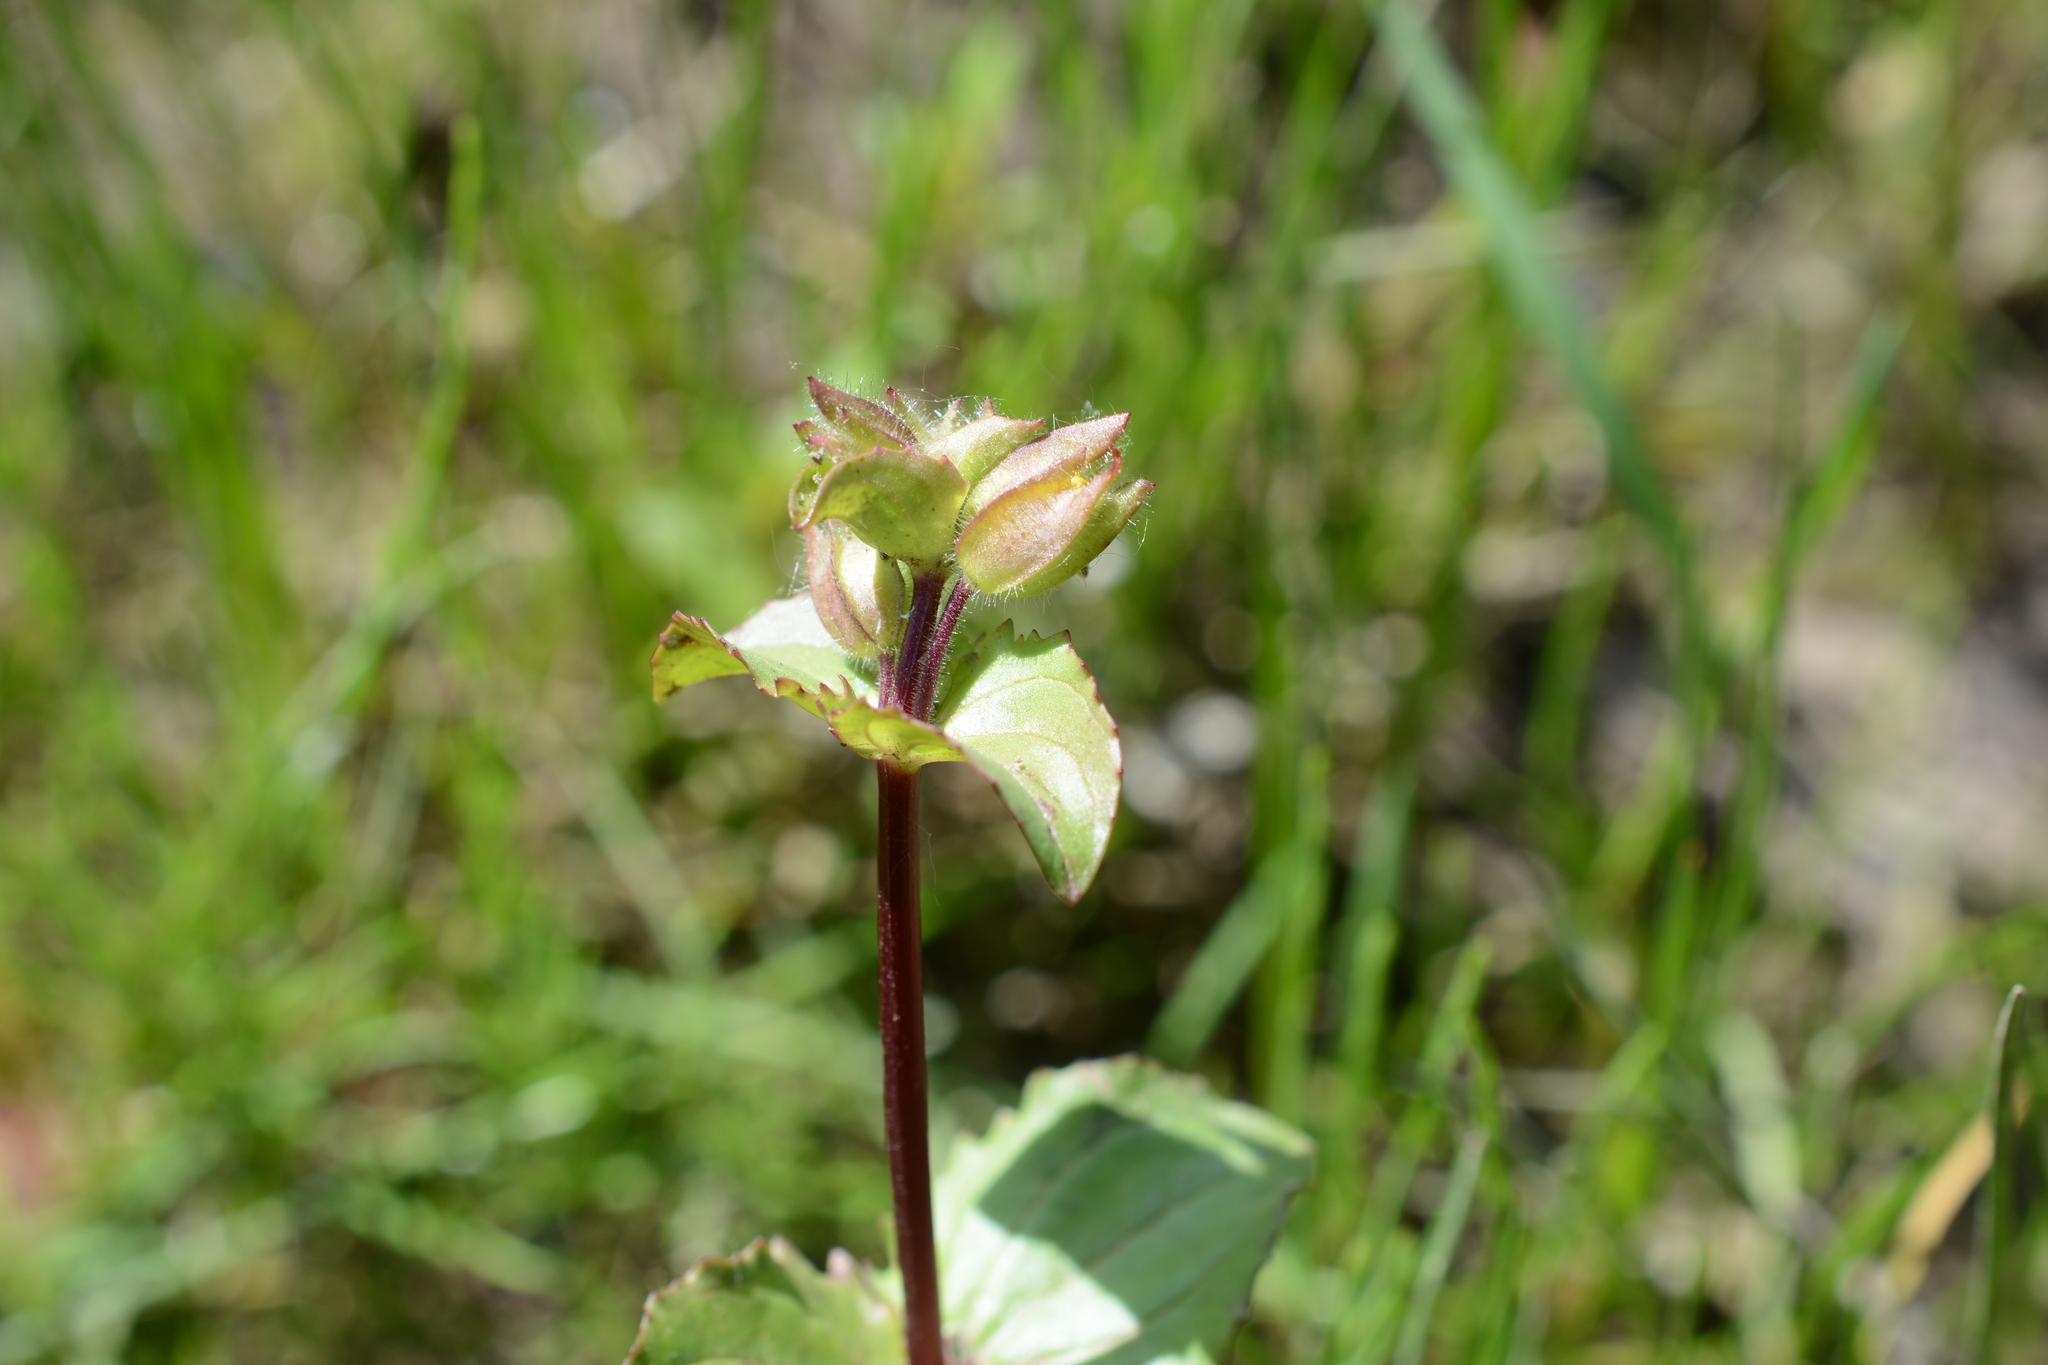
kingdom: Plantae
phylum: Tracheophyta
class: Magnoliopsida
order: Lamiales
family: Phrymaceae
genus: Erythranthe
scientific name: Erythranthe guttata
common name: Monkeyflower
